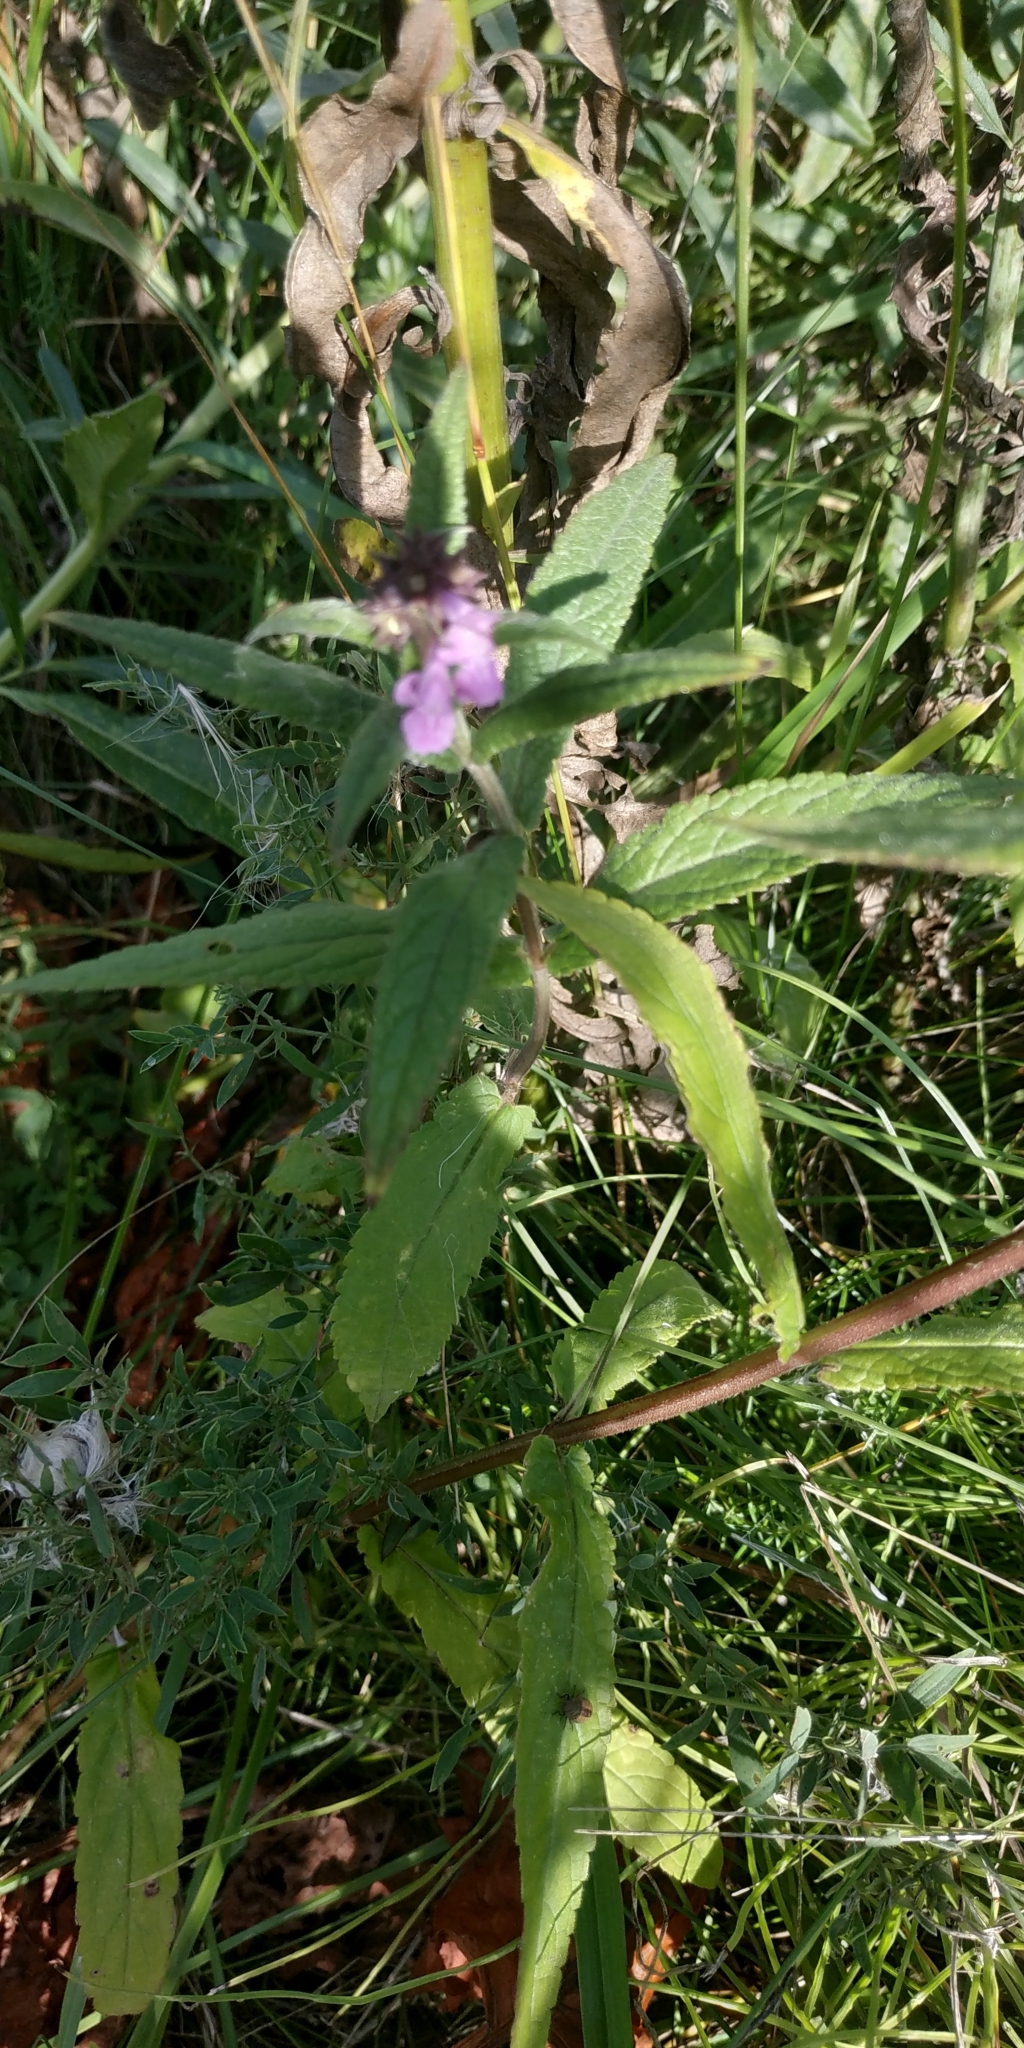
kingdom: Plantae
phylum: Tracheophyta
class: Magnoliopsida
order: Lamiales
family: Lamiaceae
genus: Stachys
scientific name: Stachys palustris
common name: Marsh woundwort
